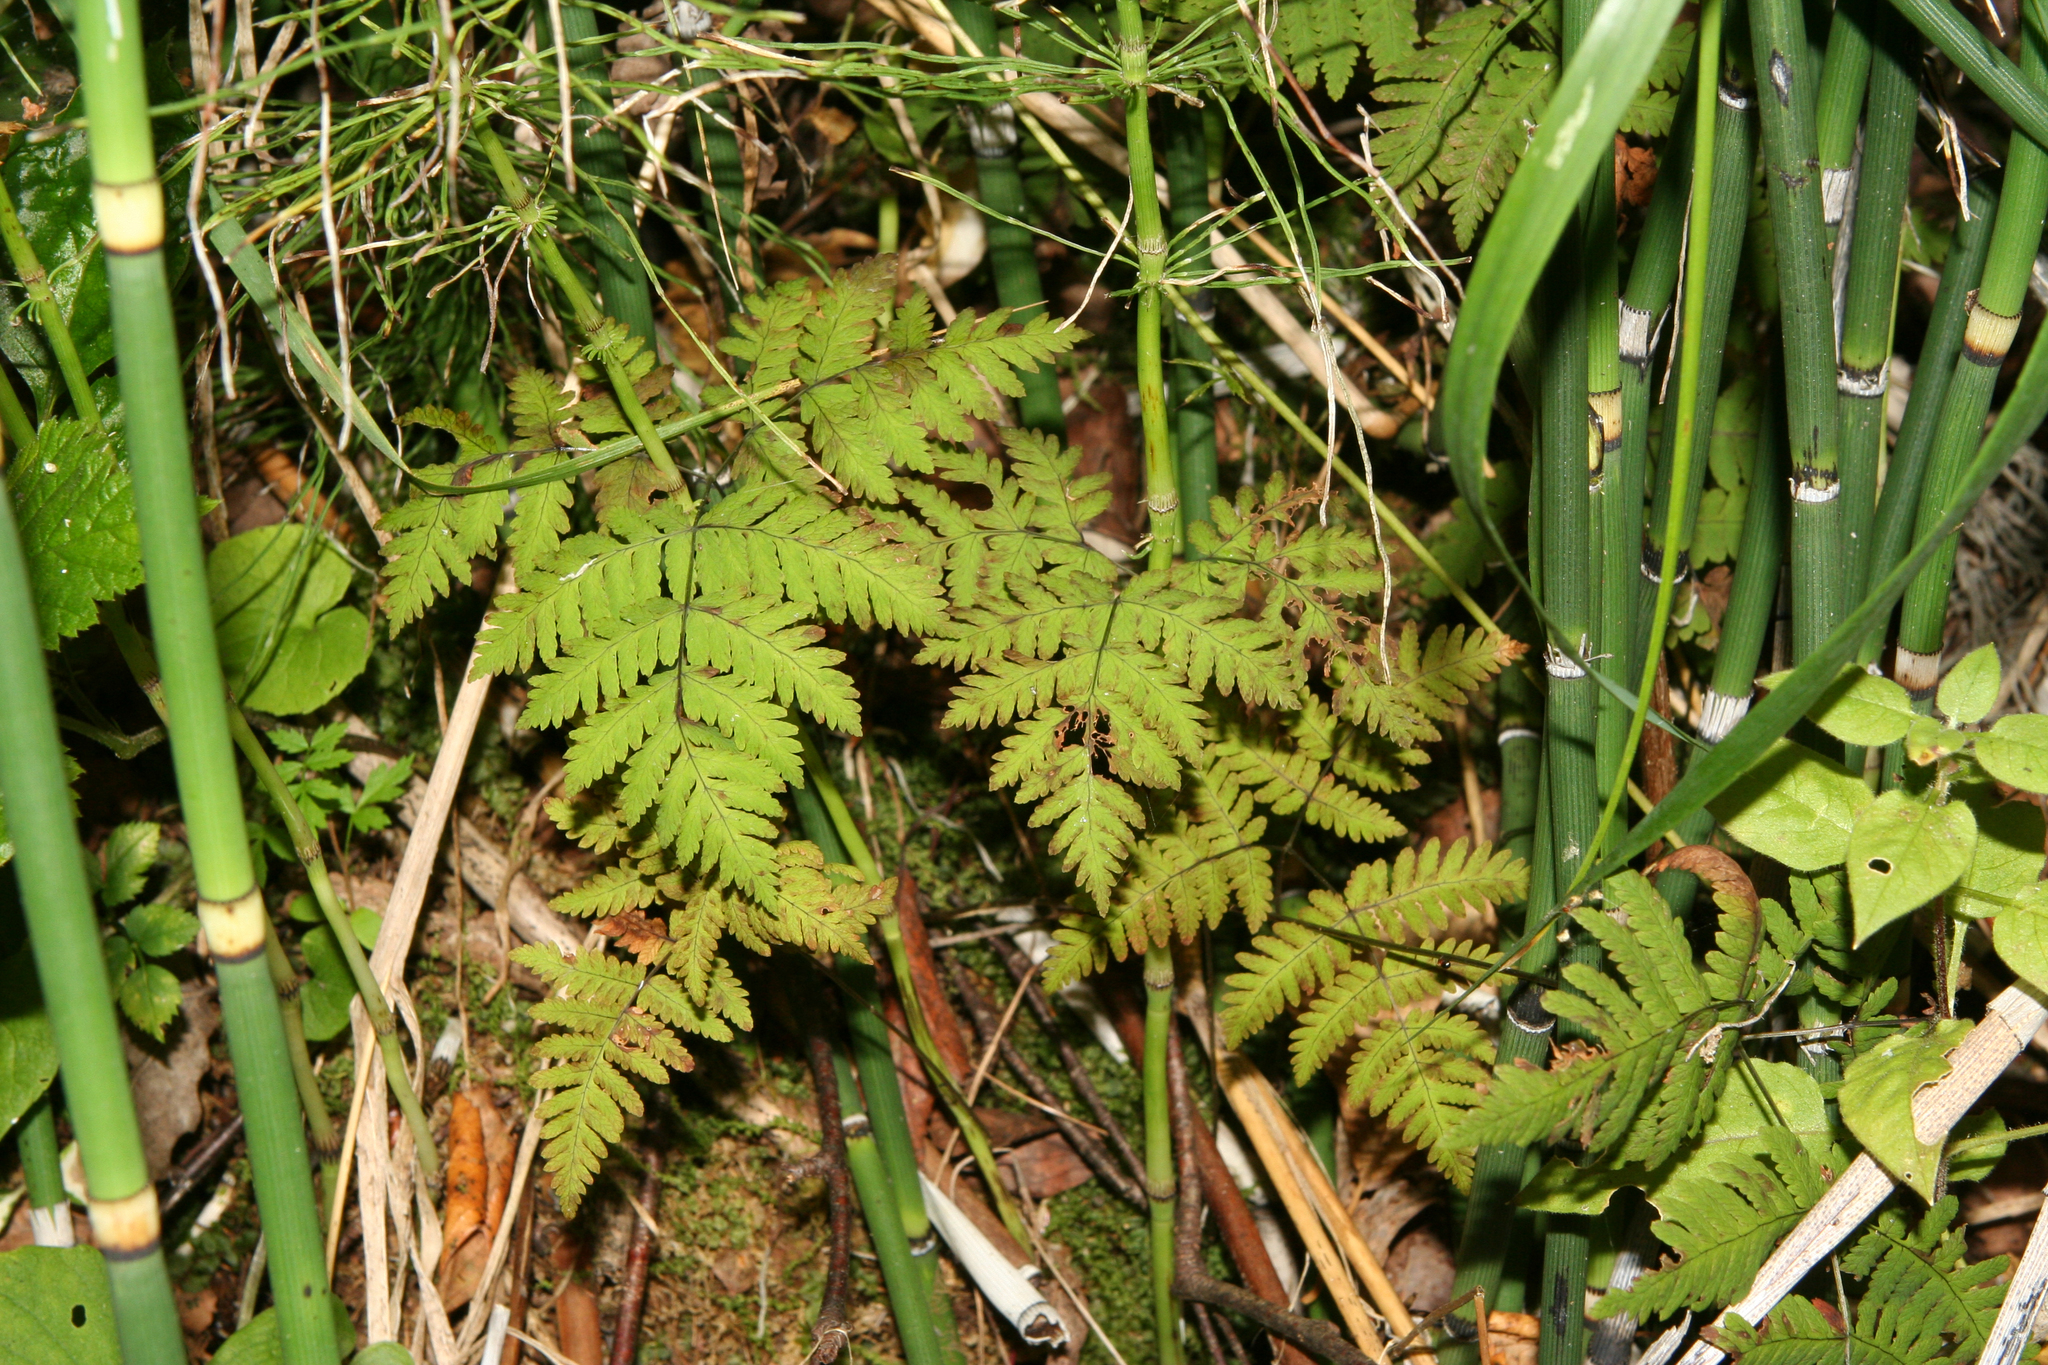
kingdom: Plantae
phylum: Tracheophyta
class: Polypodiopsida
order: Polypodiales
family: Cystopteridaceae
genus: Gymnocarpium
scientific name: Gymnocarpium dryopteris
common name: Oak fern
